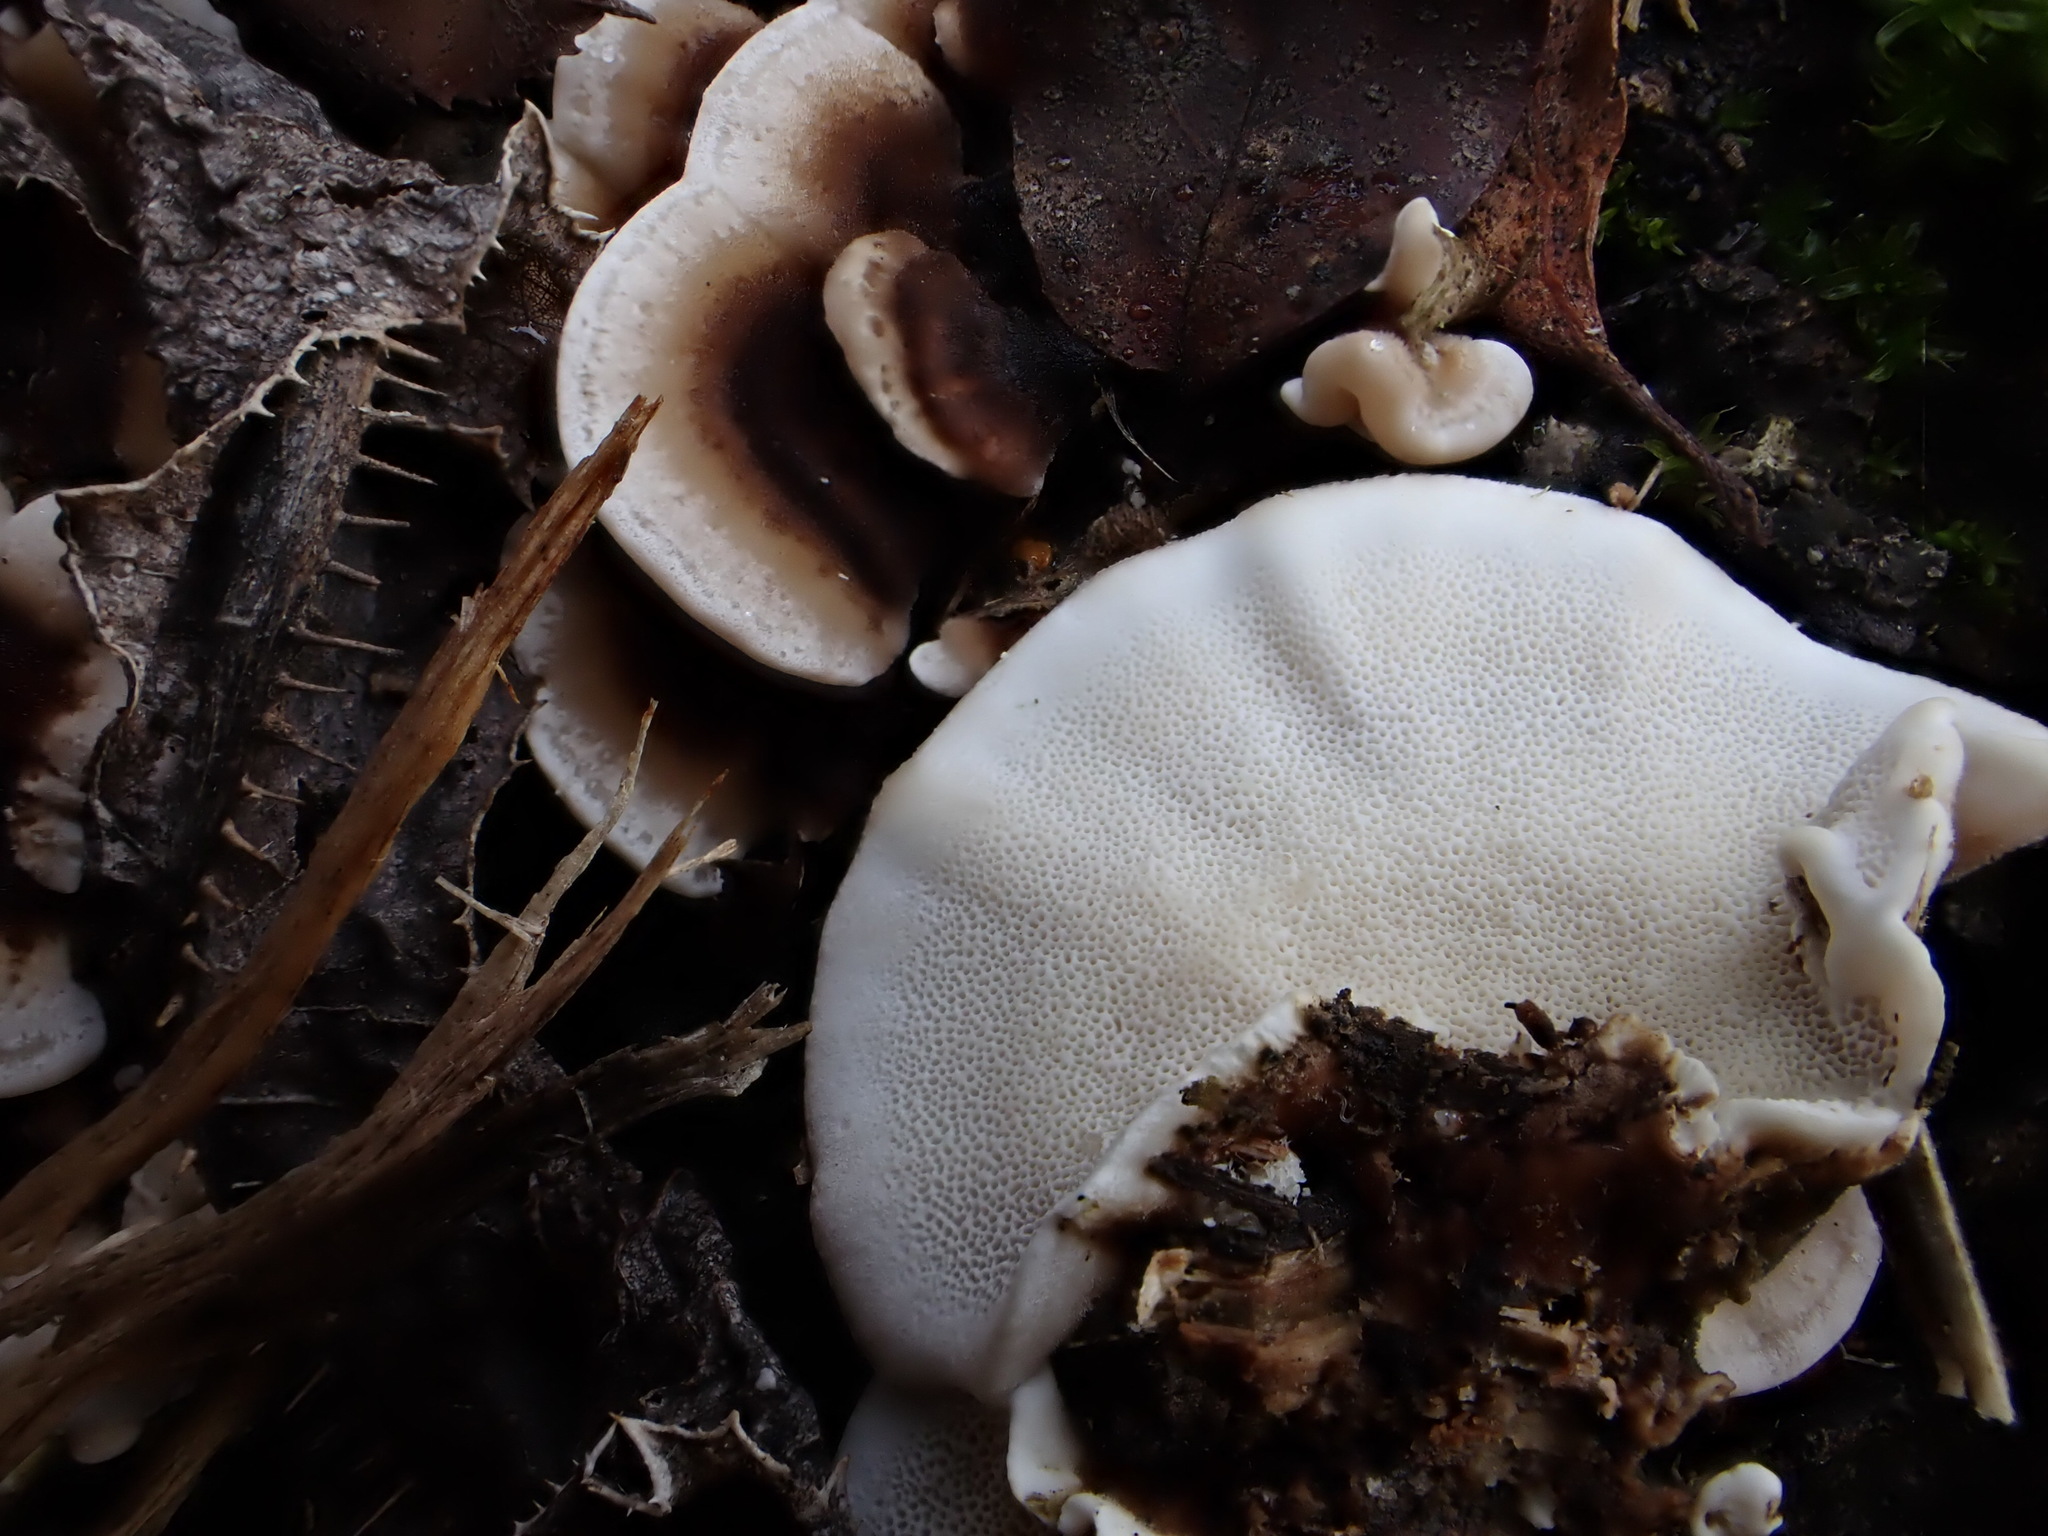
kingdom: Fungi
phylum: Basidiomycota
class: Agaricomycetes
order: Polyporales
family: Polyporaceae
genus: Trametes
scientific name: Trametes versicolor
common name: Turkeytail
